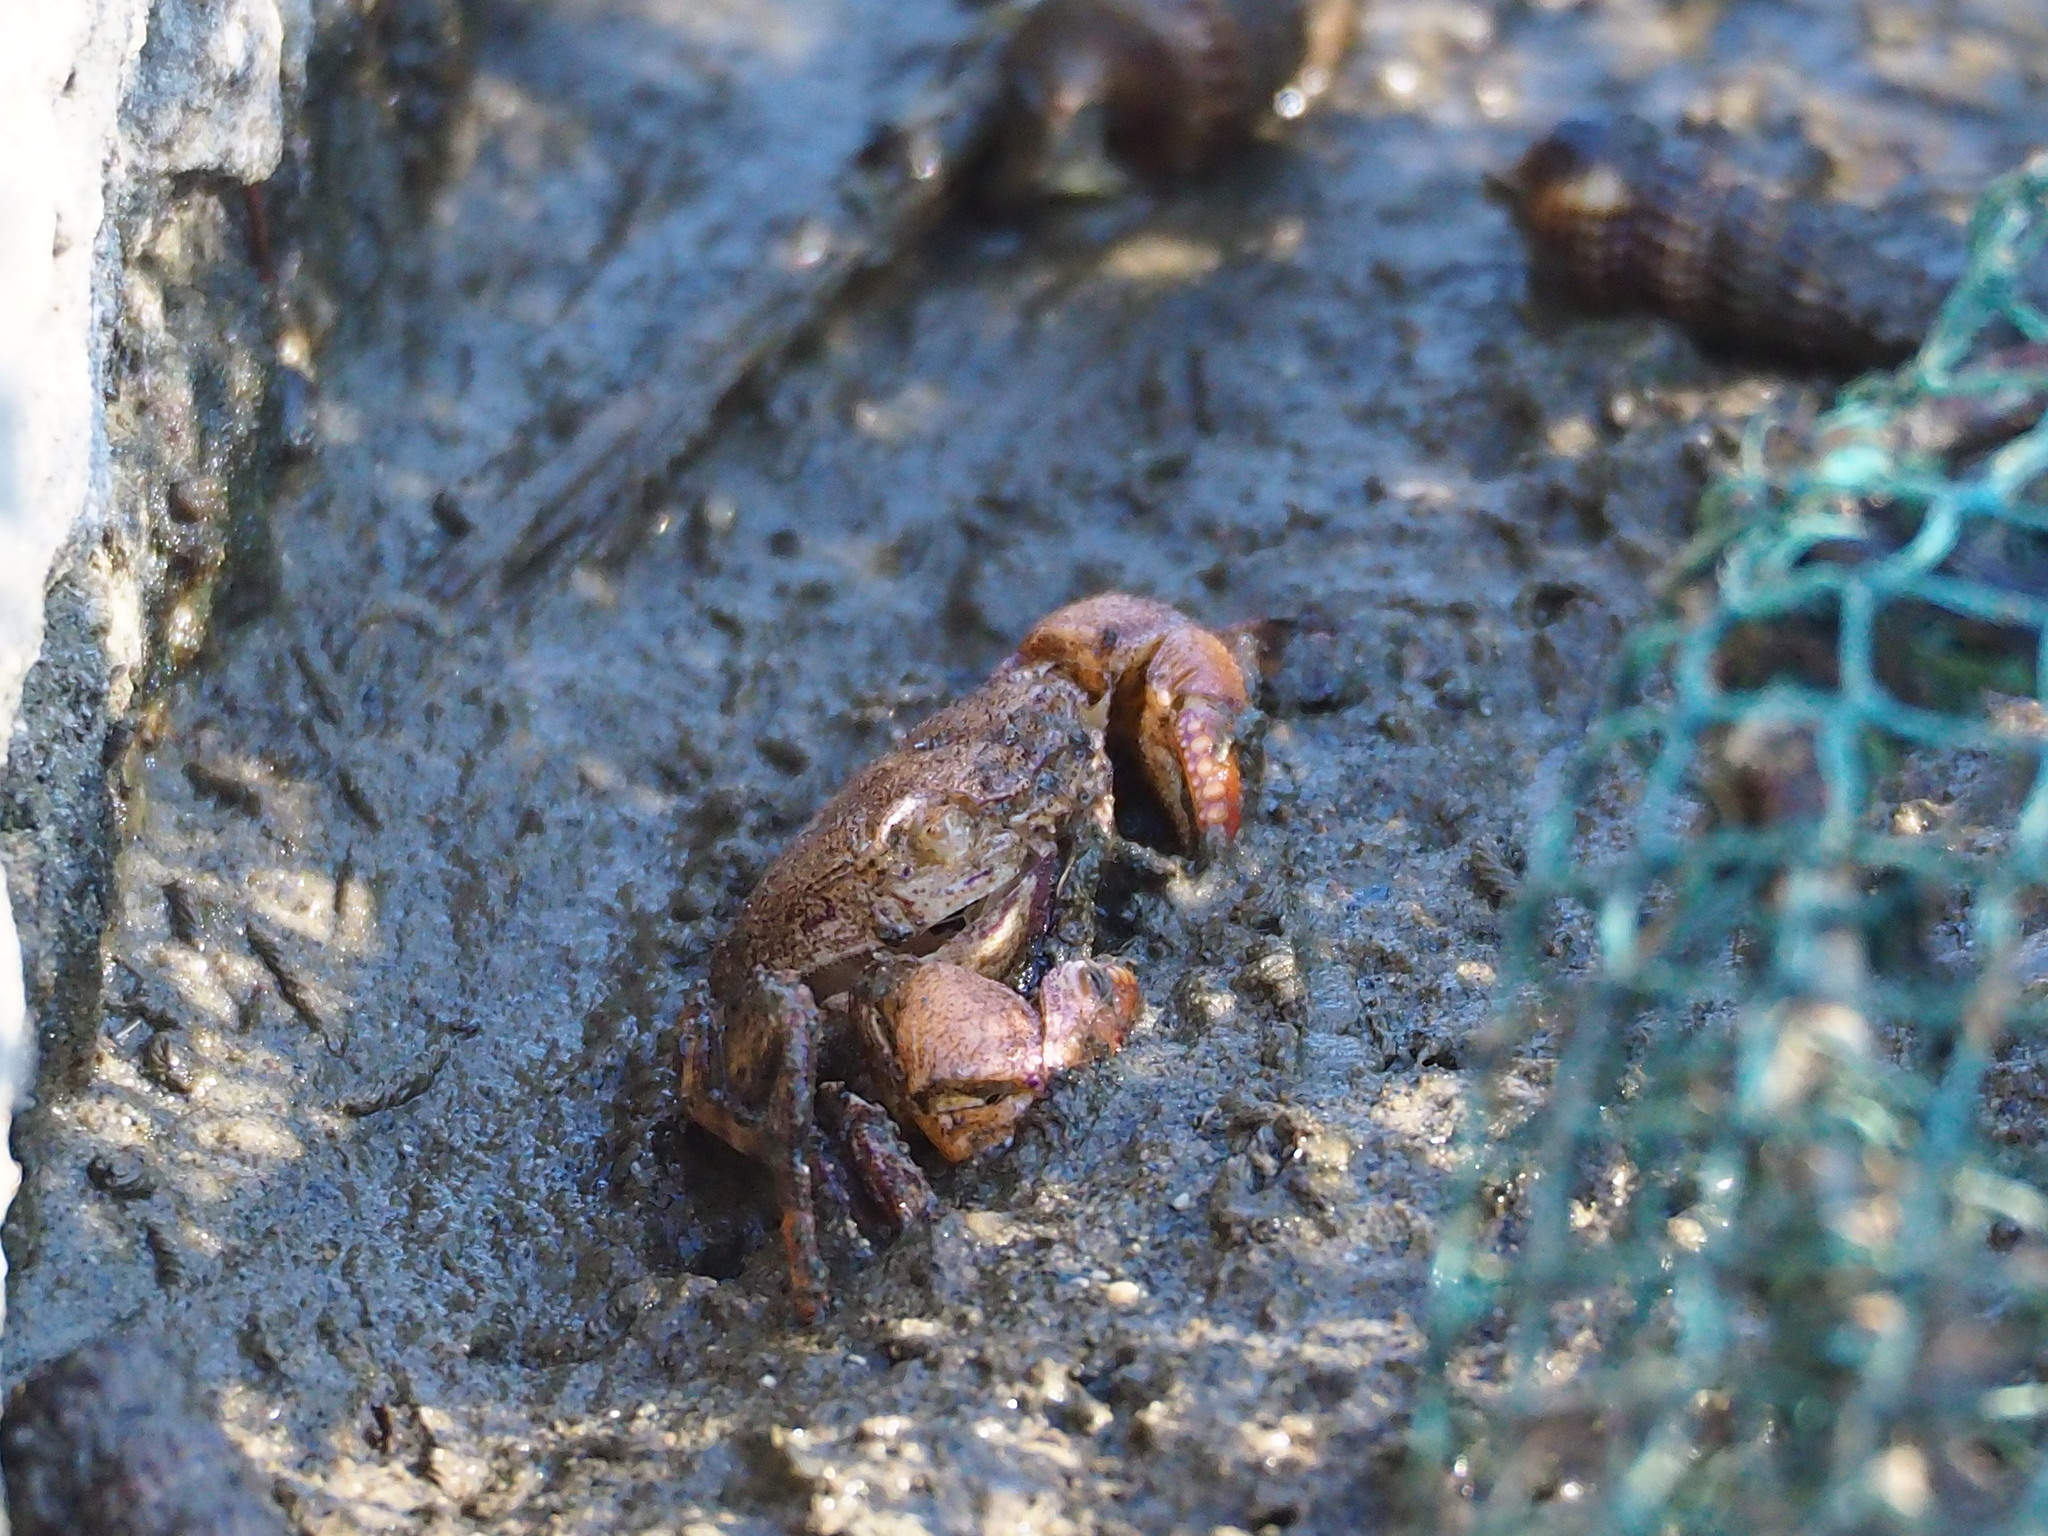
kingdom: Animalia
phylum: Arthropoda
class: Malacostraca
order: Decapoda
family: Sesarmidae
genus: Parasesarma
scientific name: Parasesarma insulare
